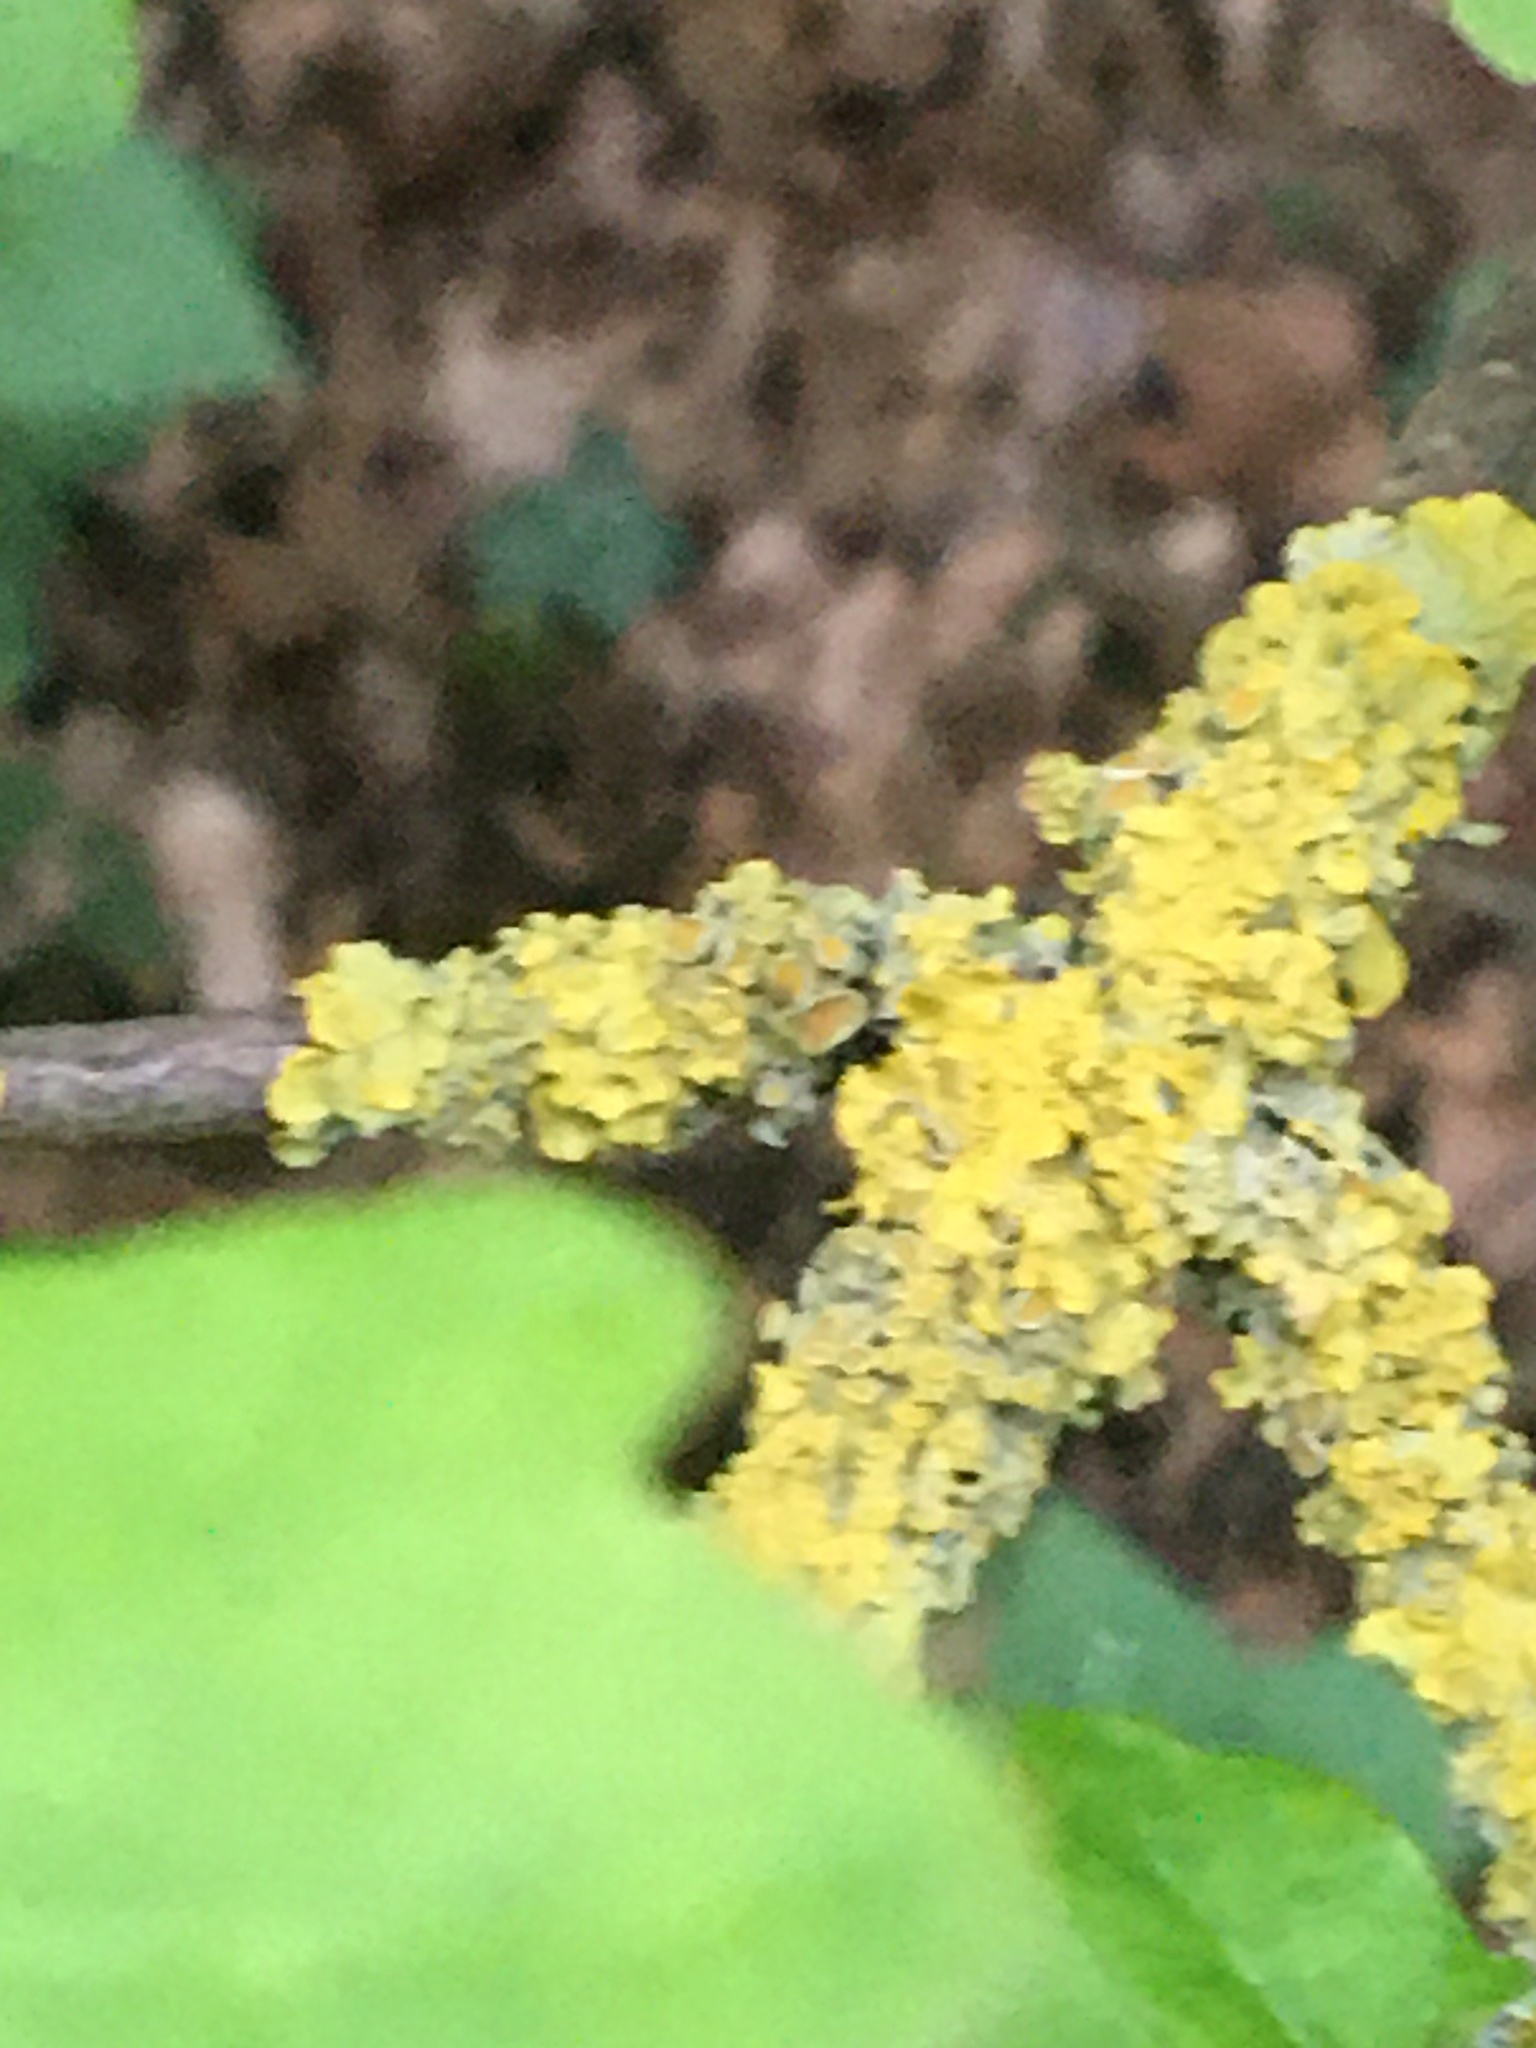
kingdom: Fungi
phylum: Ascomycota
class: Lecanoromycetes
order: Teloschistales
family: Teloschistaceae
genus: Xanthoria
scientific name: Xanthoria parietina
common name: Common orange lichen
